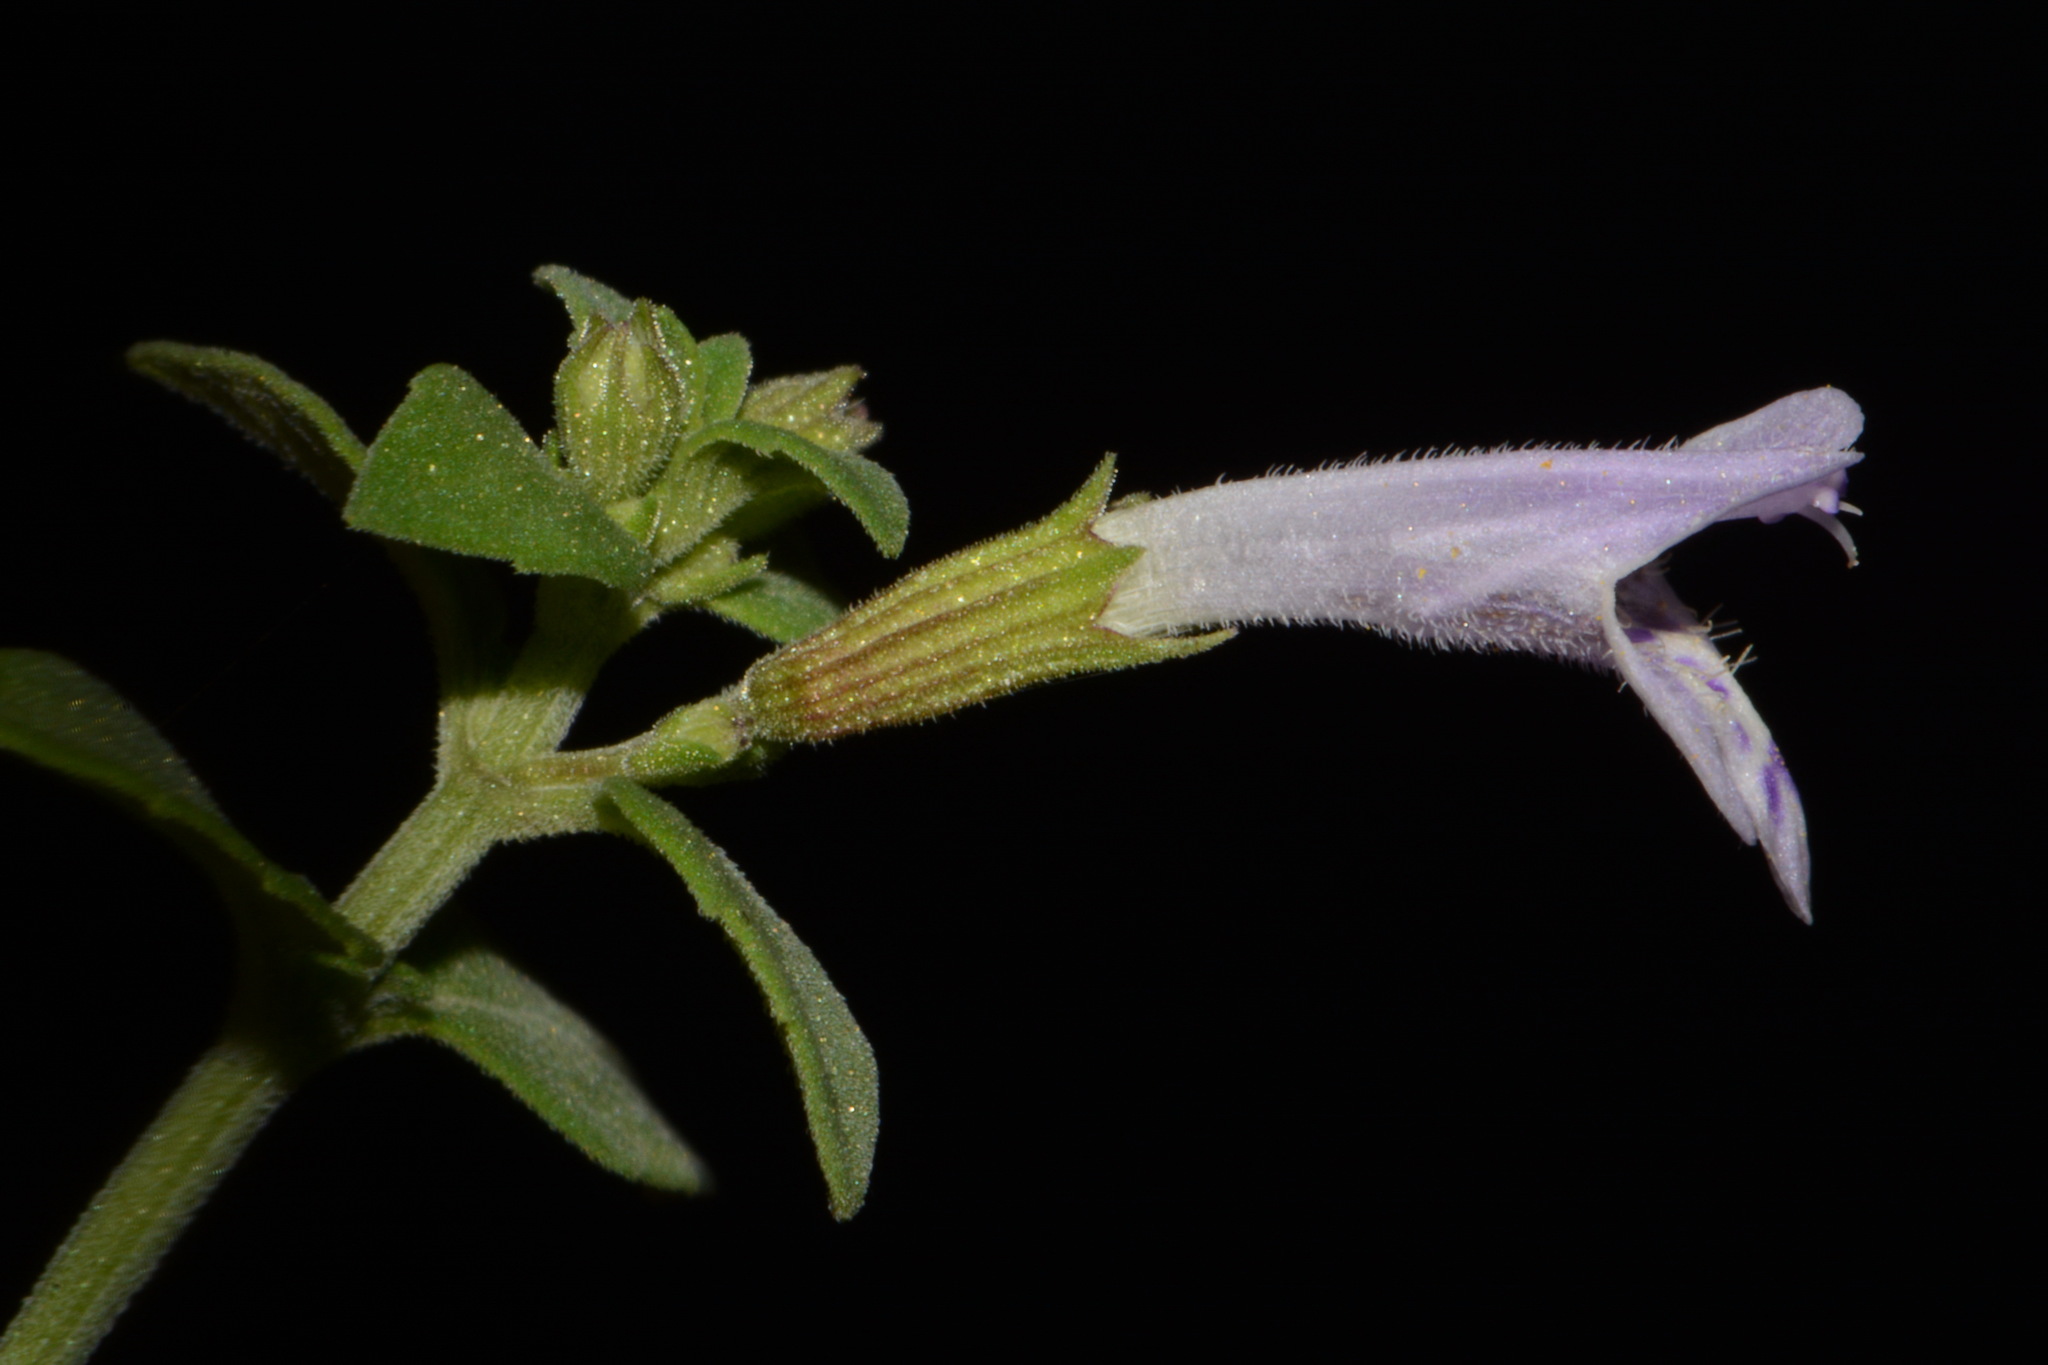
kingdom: Plantae
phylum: Tracheophyta
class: Magnoliopsida
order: Lamiales
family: Lamiaceae
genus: Clinopodium
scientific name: Clinopodium nepeta
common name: Lesser calamint
